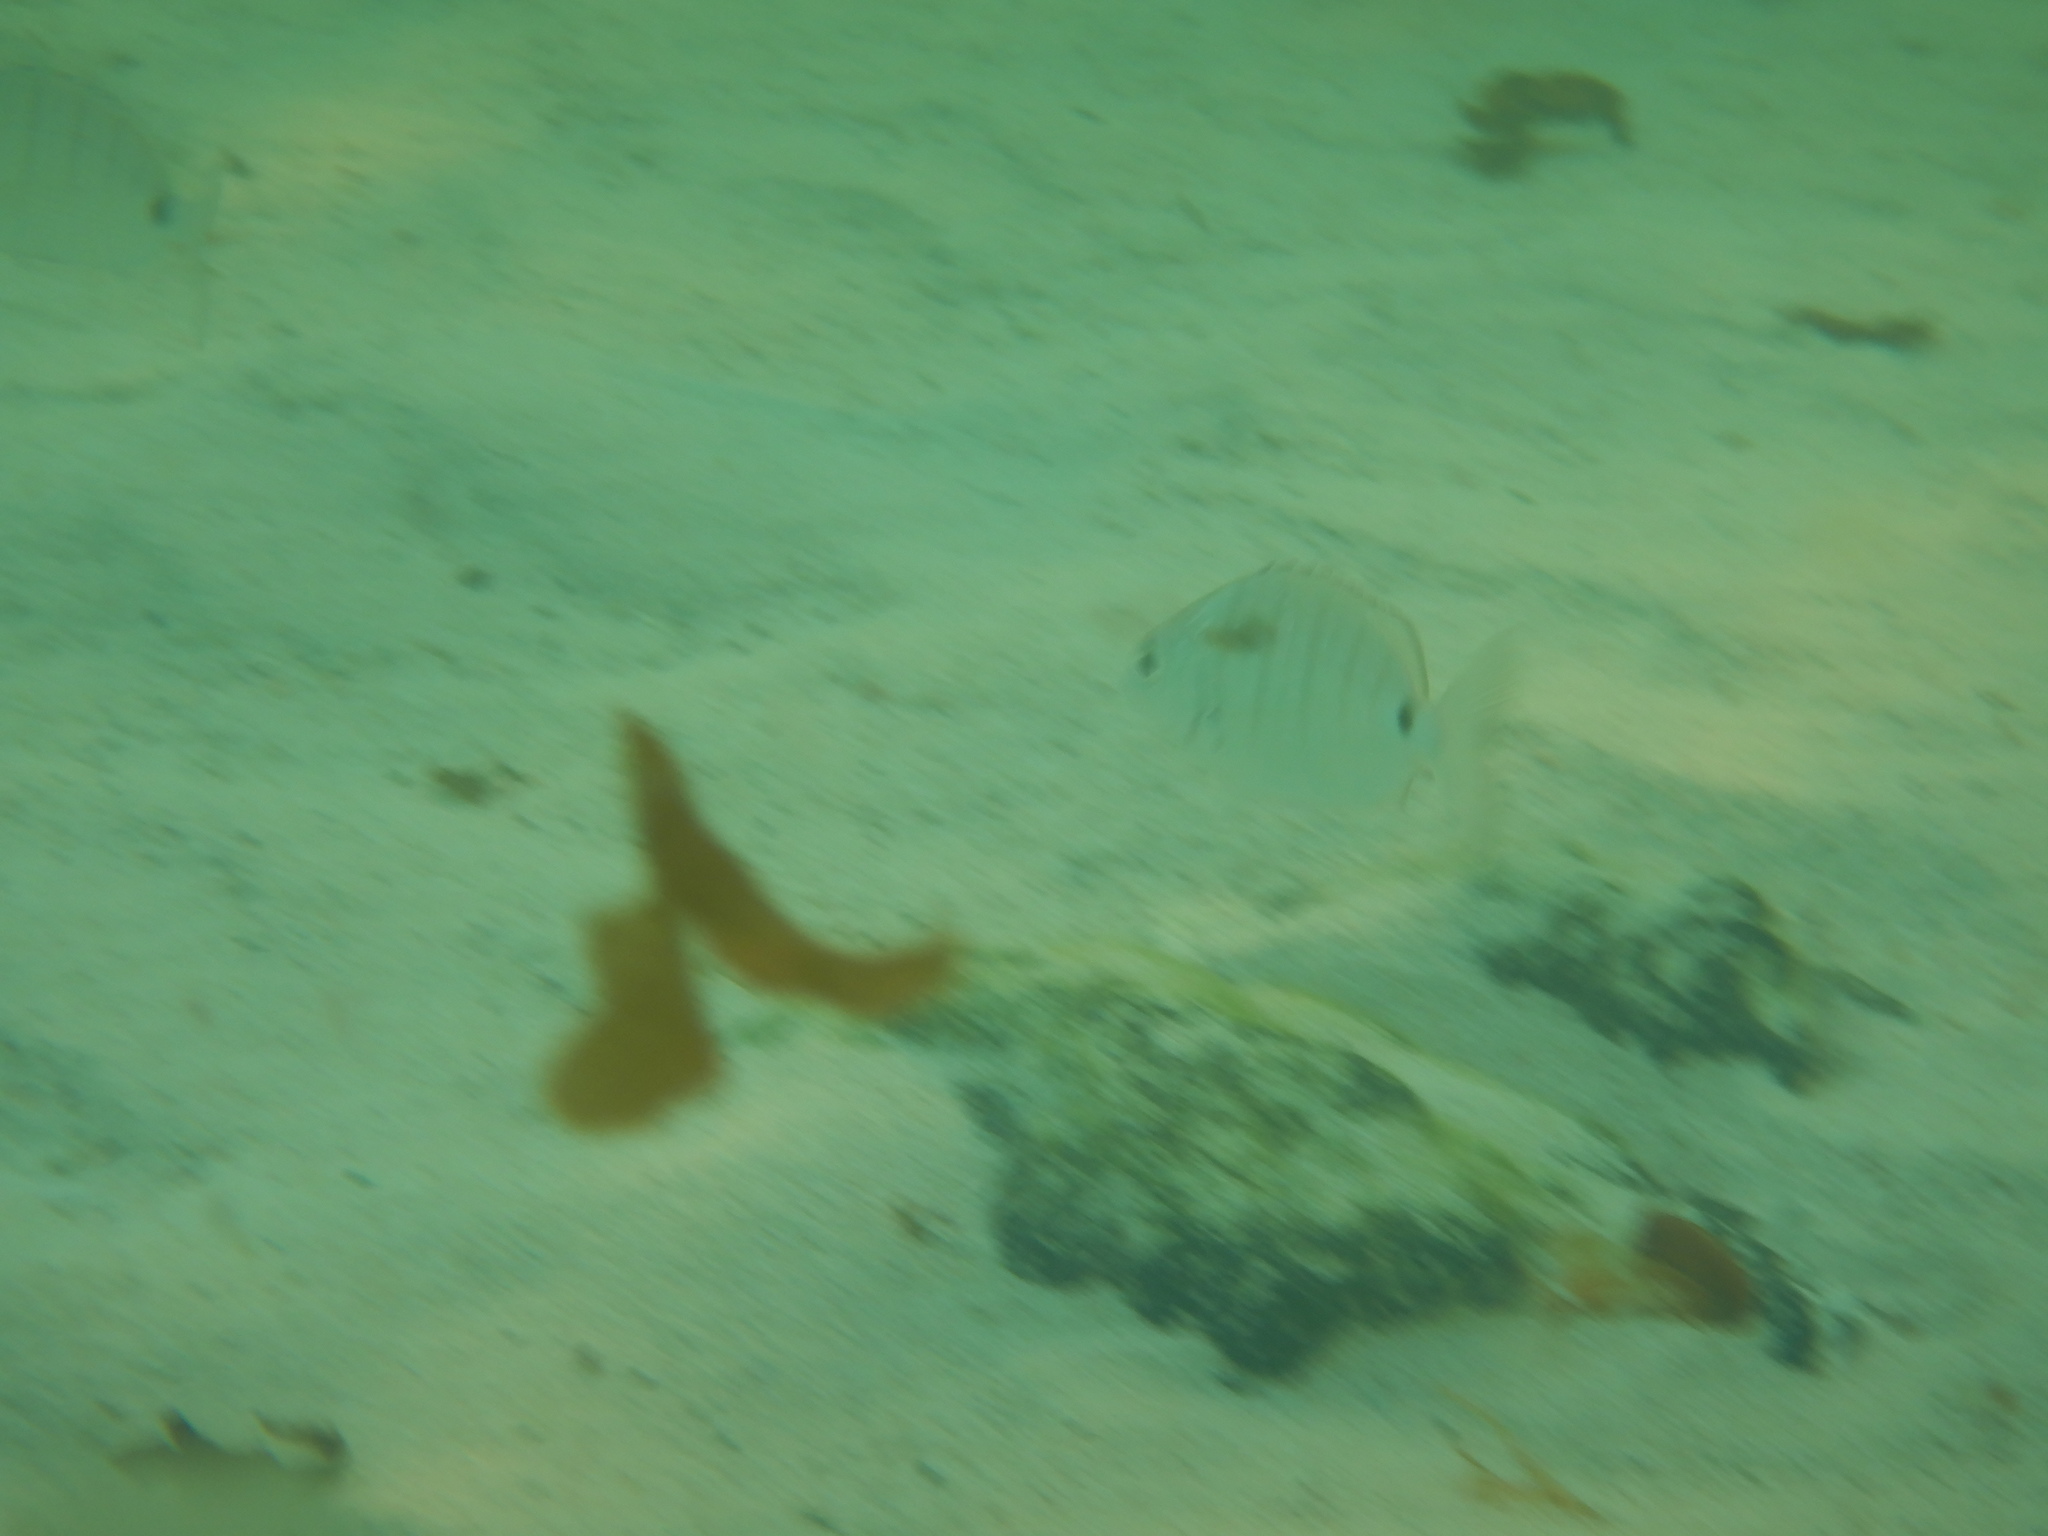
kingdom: Animalia
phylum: Chordata
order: Perciformes
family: Sparidae
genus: Diplodus
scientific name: Diplodus cadenati
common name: Moroccan white seabream
